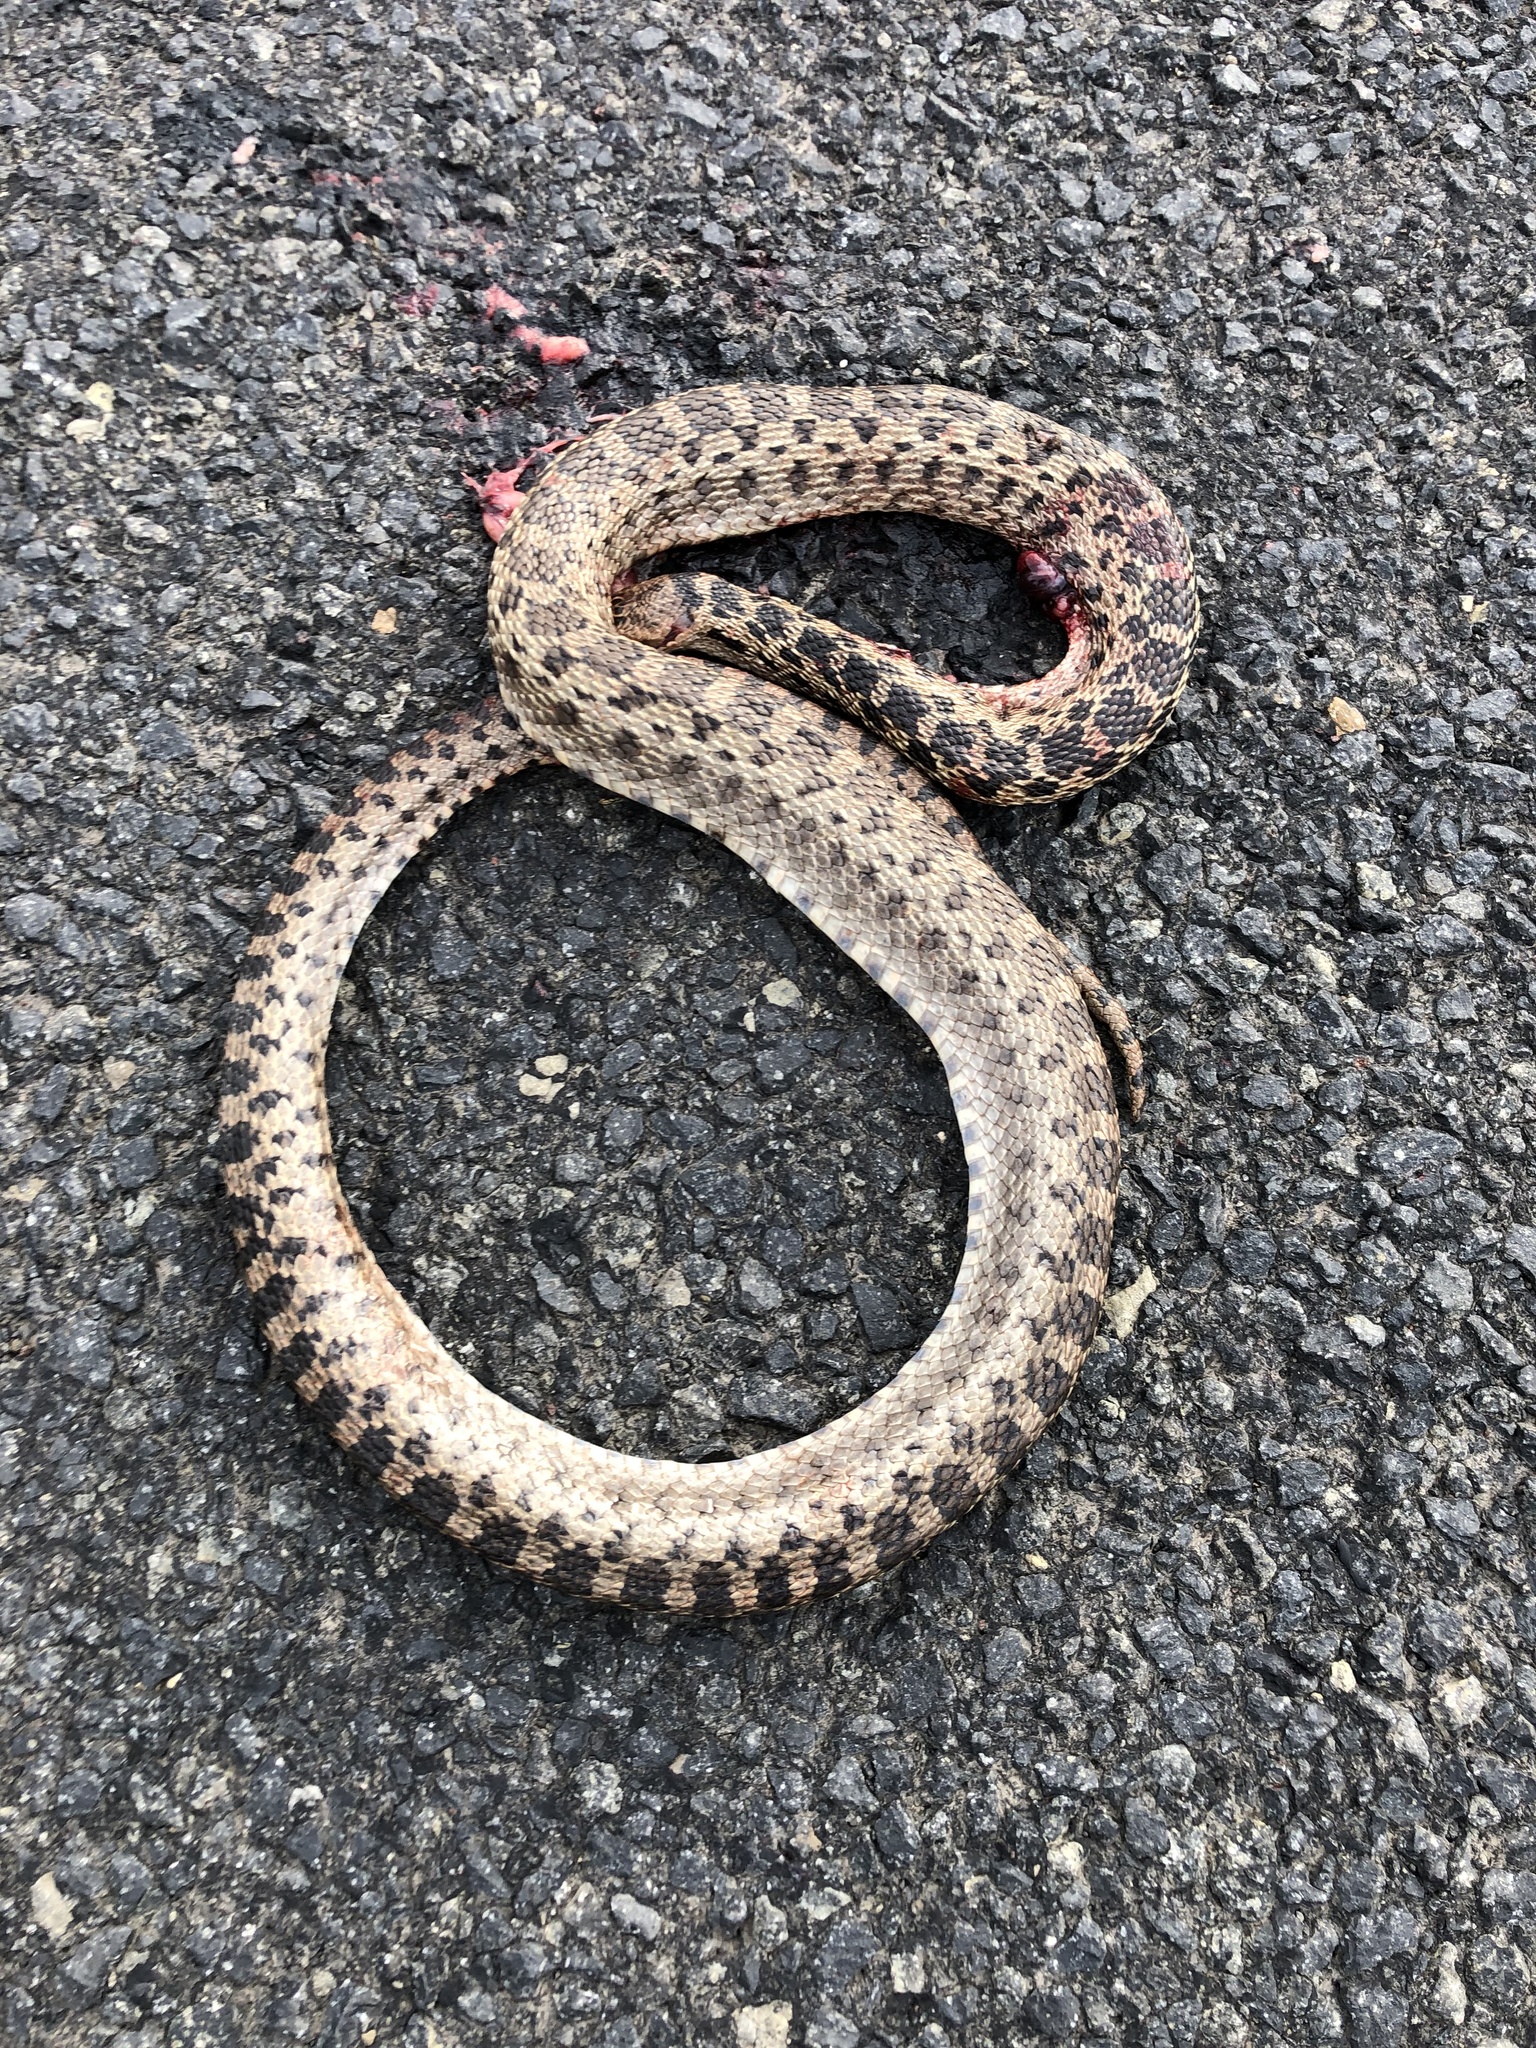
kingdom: Animalia
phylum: Chordata
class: Squamata
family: Colubridae
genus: Pituophis
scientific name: Pituophis catenifer
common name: Gopher snake
